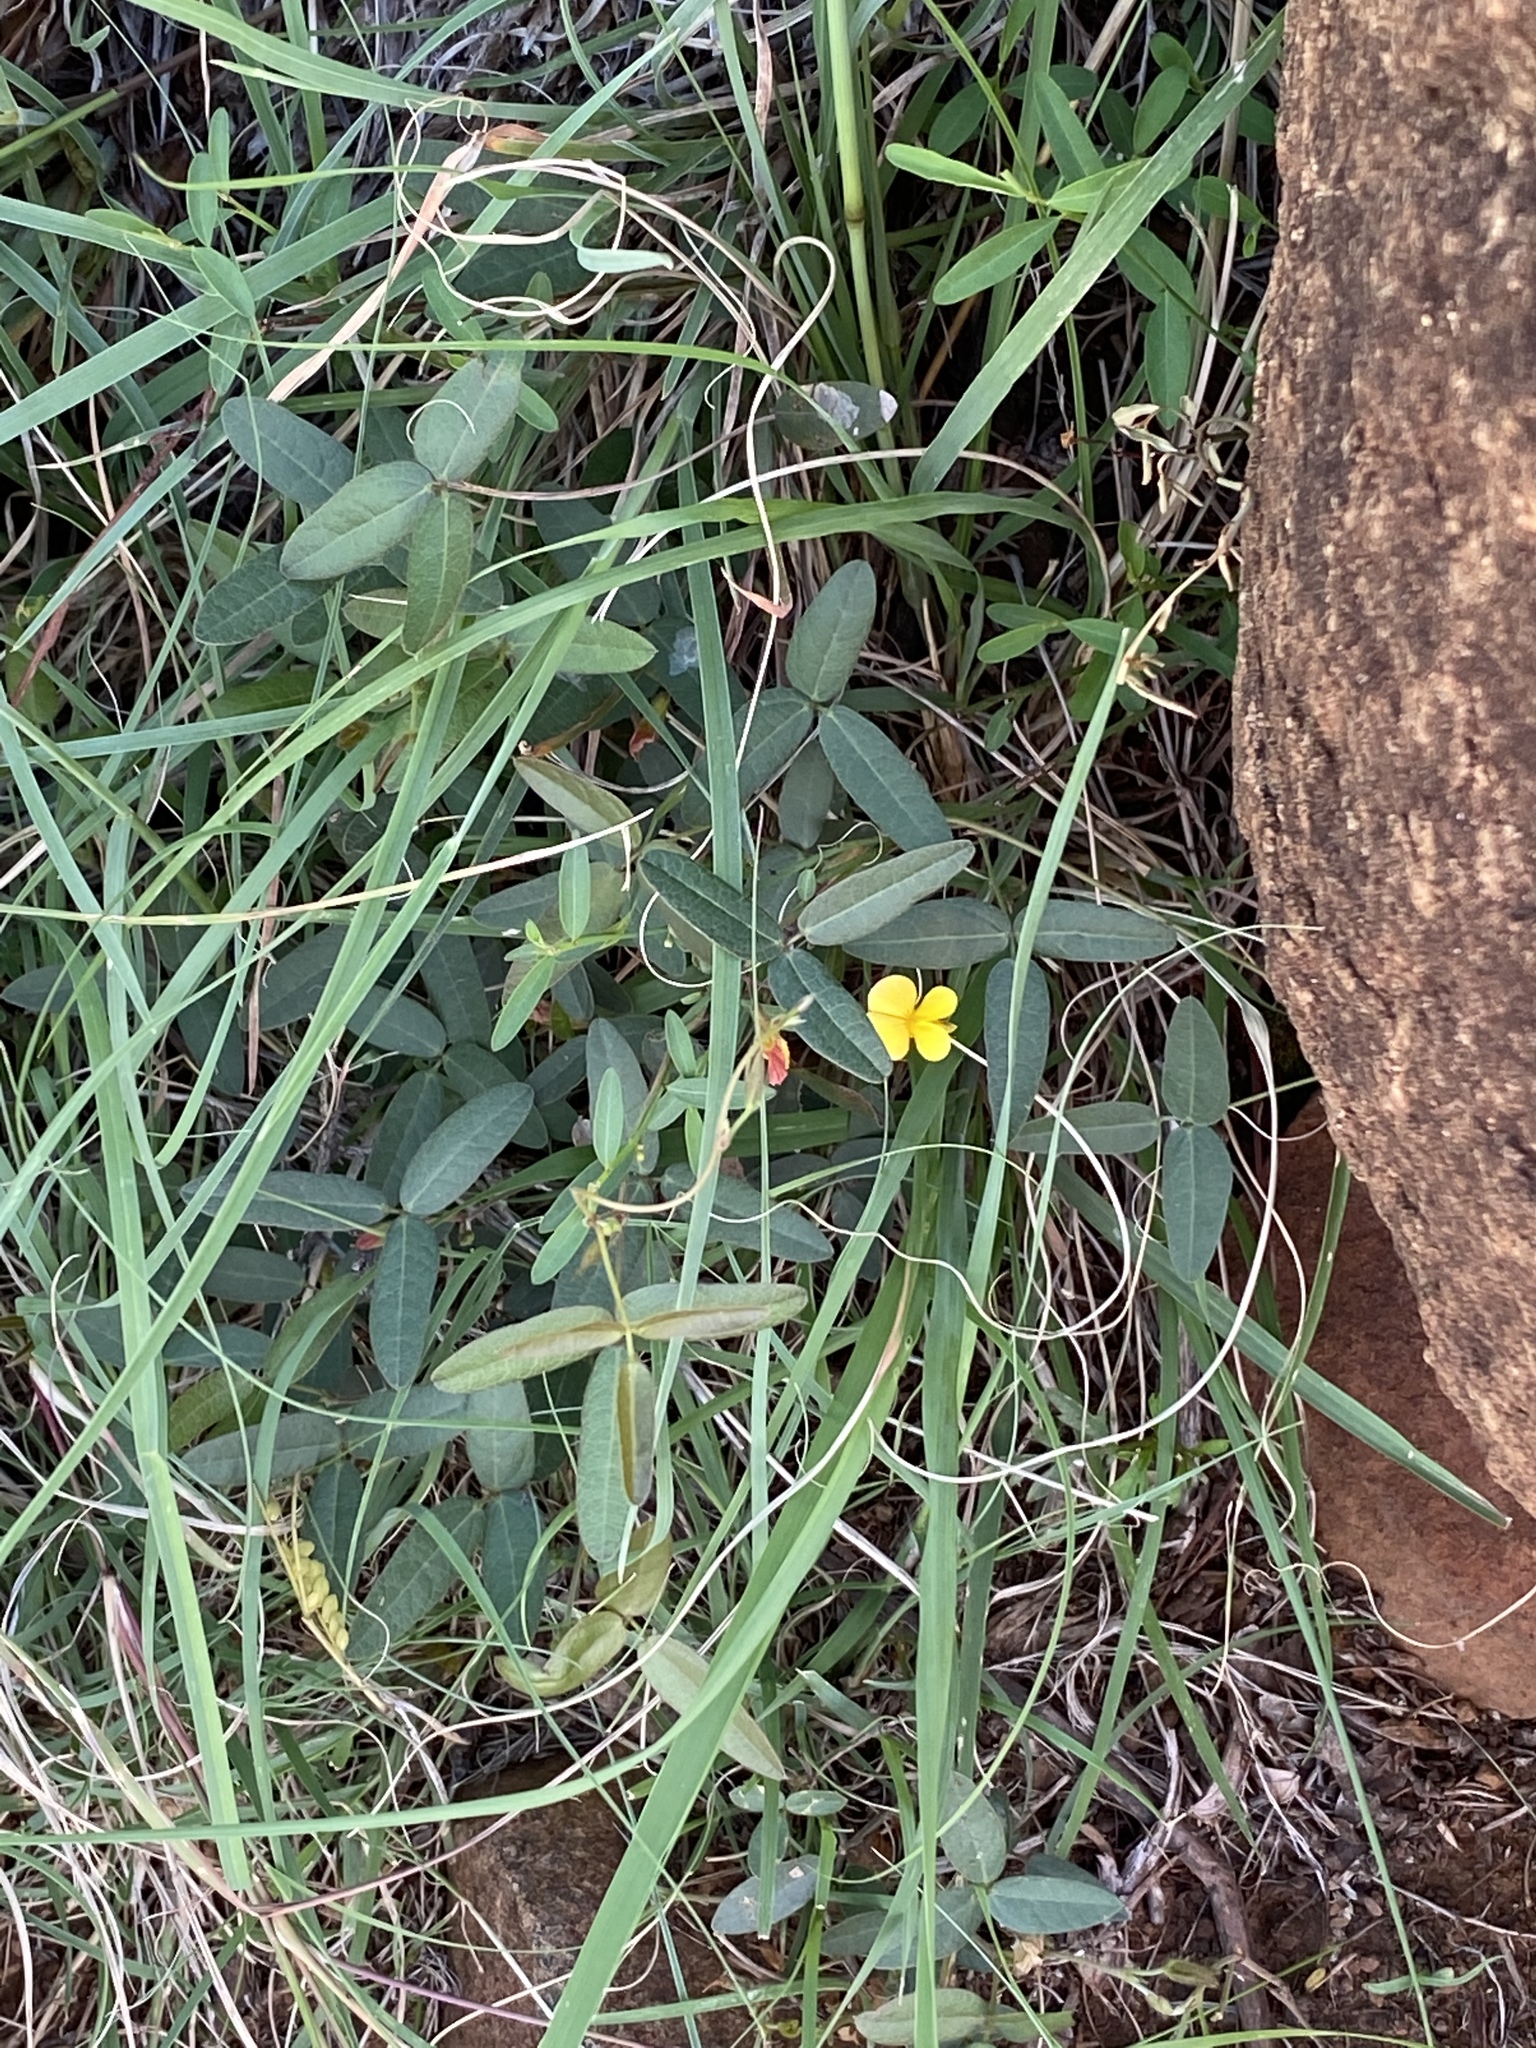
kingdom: Plantae
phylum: Tracheophyta
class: Magnoliopsida
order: Fabales
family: Fabaceae
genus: Rhynchosia
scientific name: Rhynchosia totta
